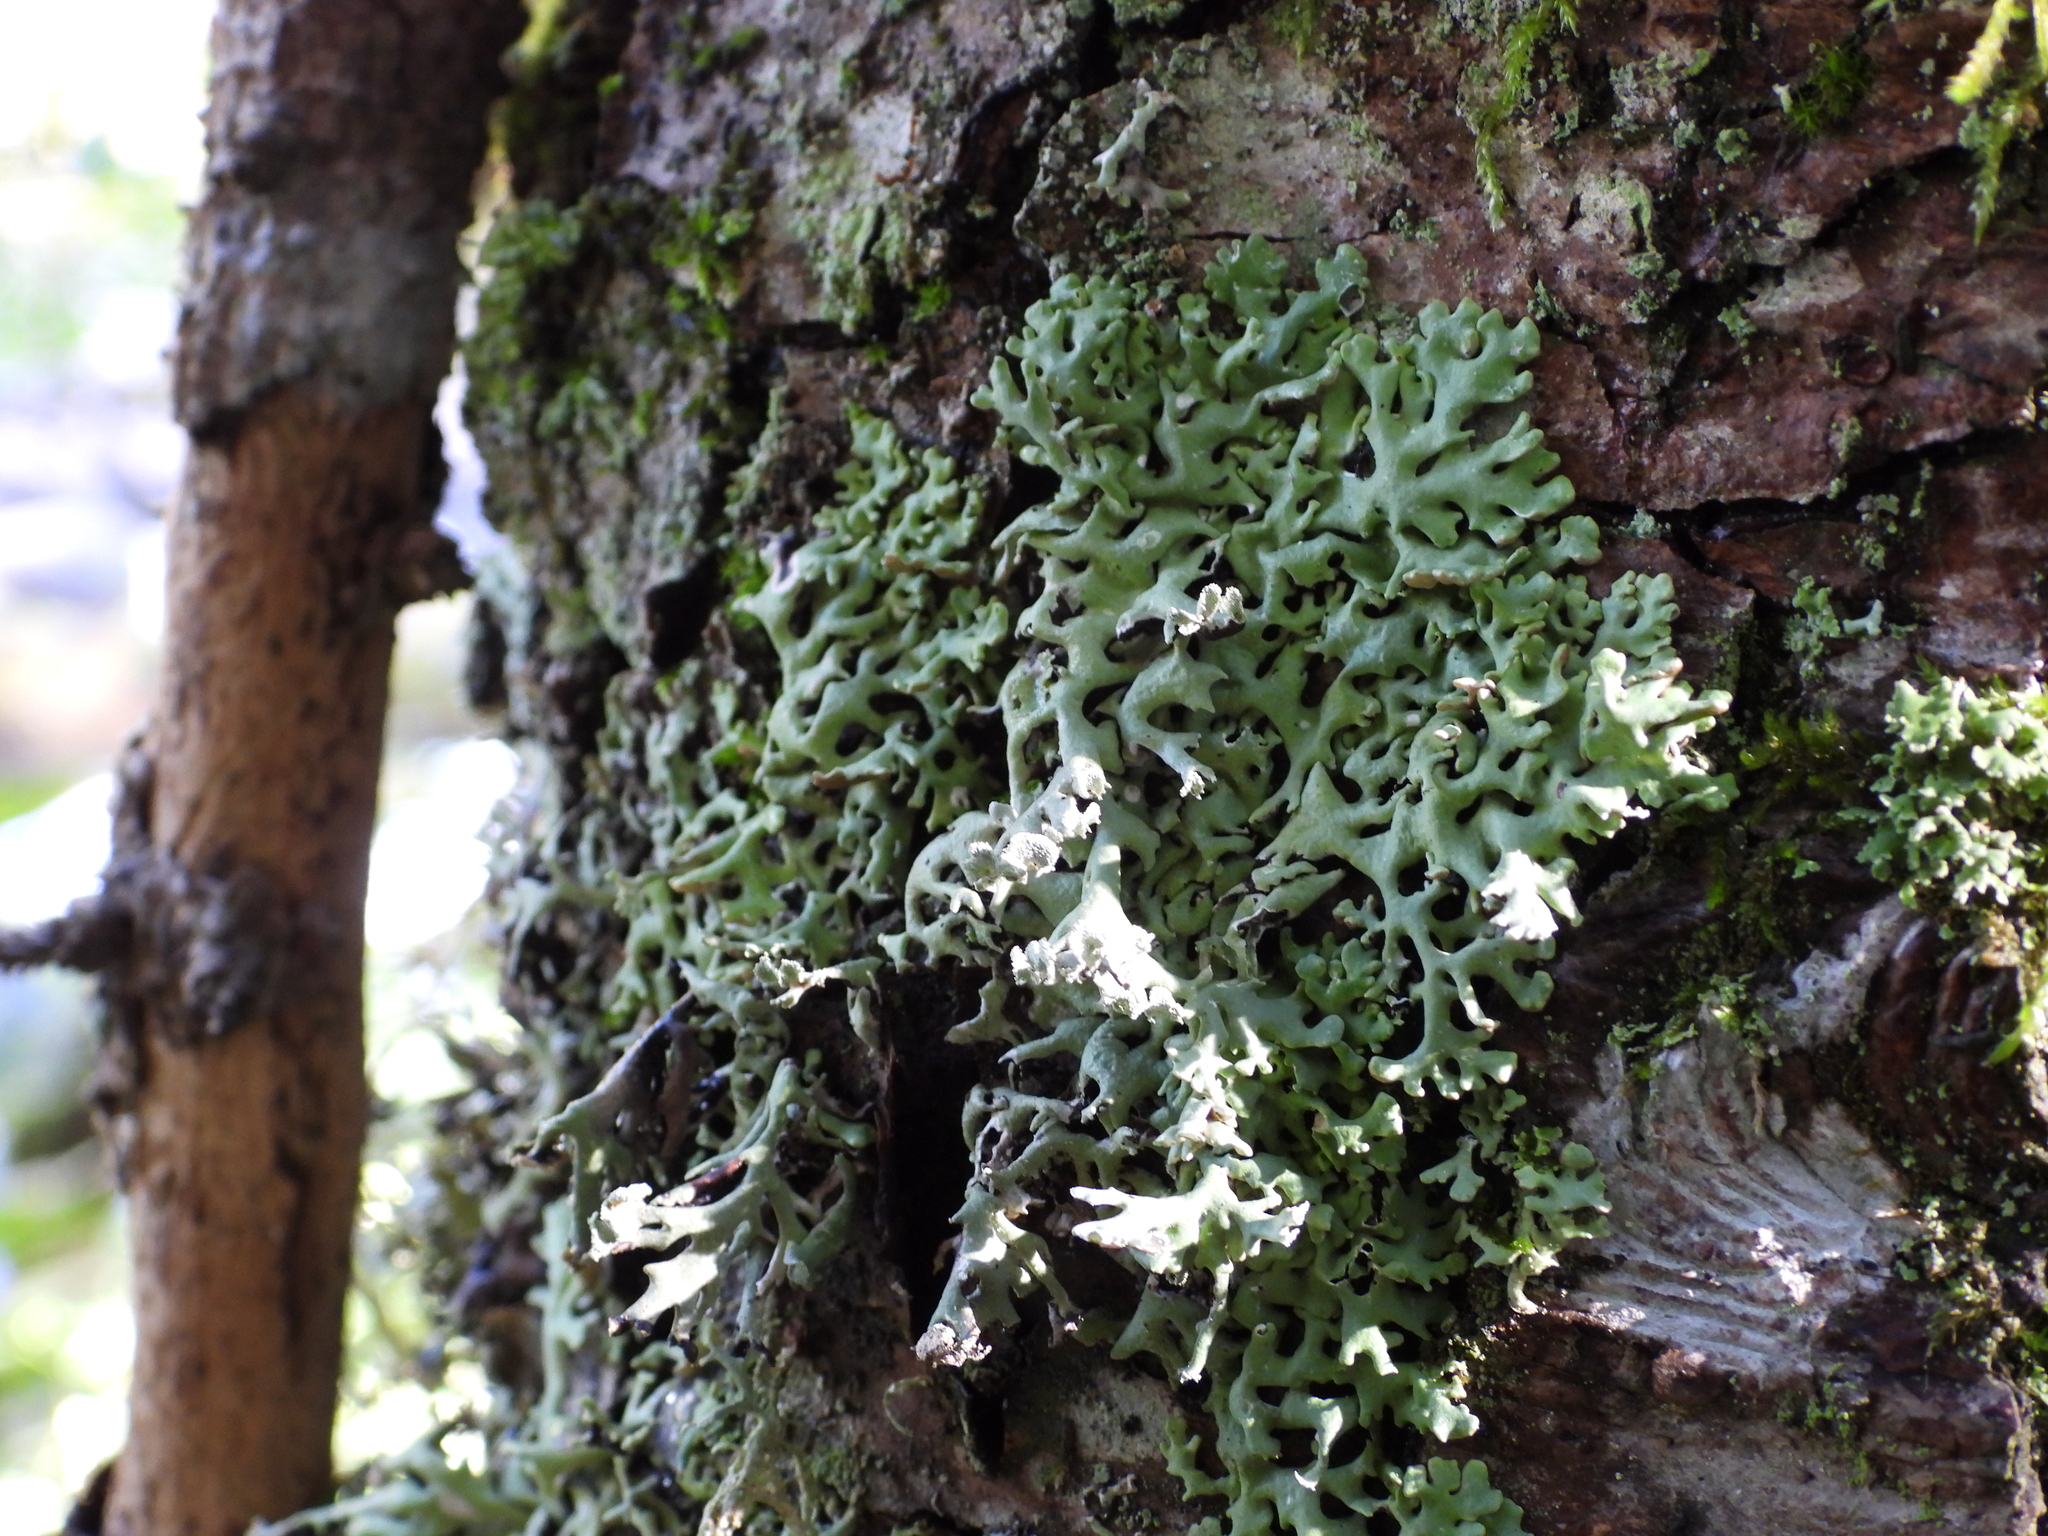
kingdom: Fungi
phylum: Ascomycota
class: Lecanoromycetes
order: Lecanorales
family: Parmeliaceae
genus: Hypogymnia
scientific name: Hypogymnia physodes
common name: Dark crottle
